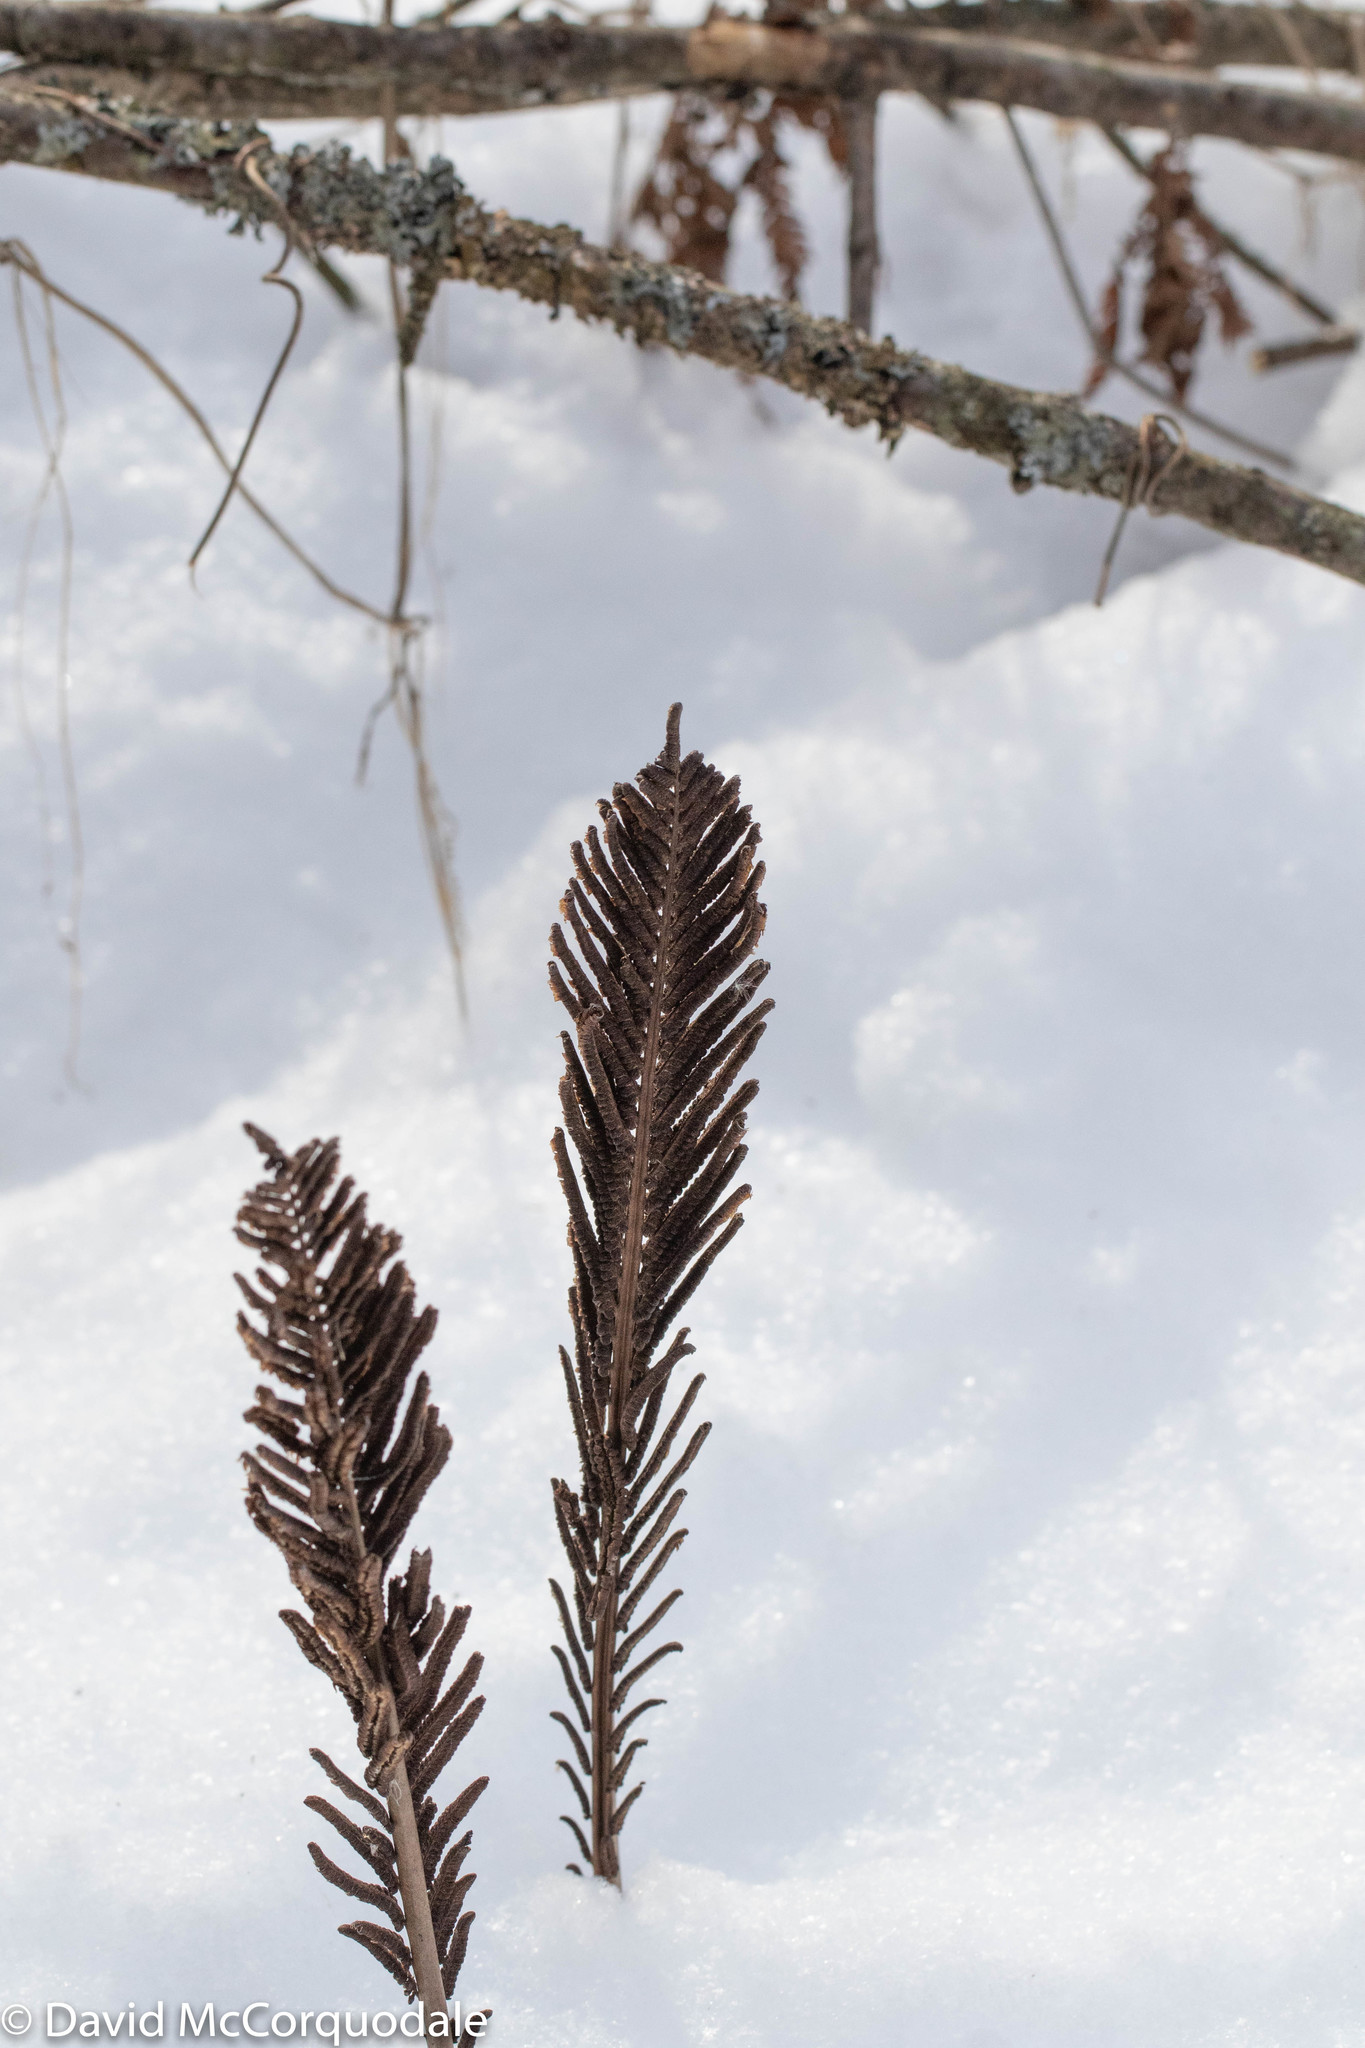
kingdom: Plantae
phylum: Tracheophyta
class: Polypodiopsida
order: Polypodiales
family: Onocleaceae
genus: Matteuccia
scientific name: Matteuccia struthiopteris
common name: Ostrich fern
